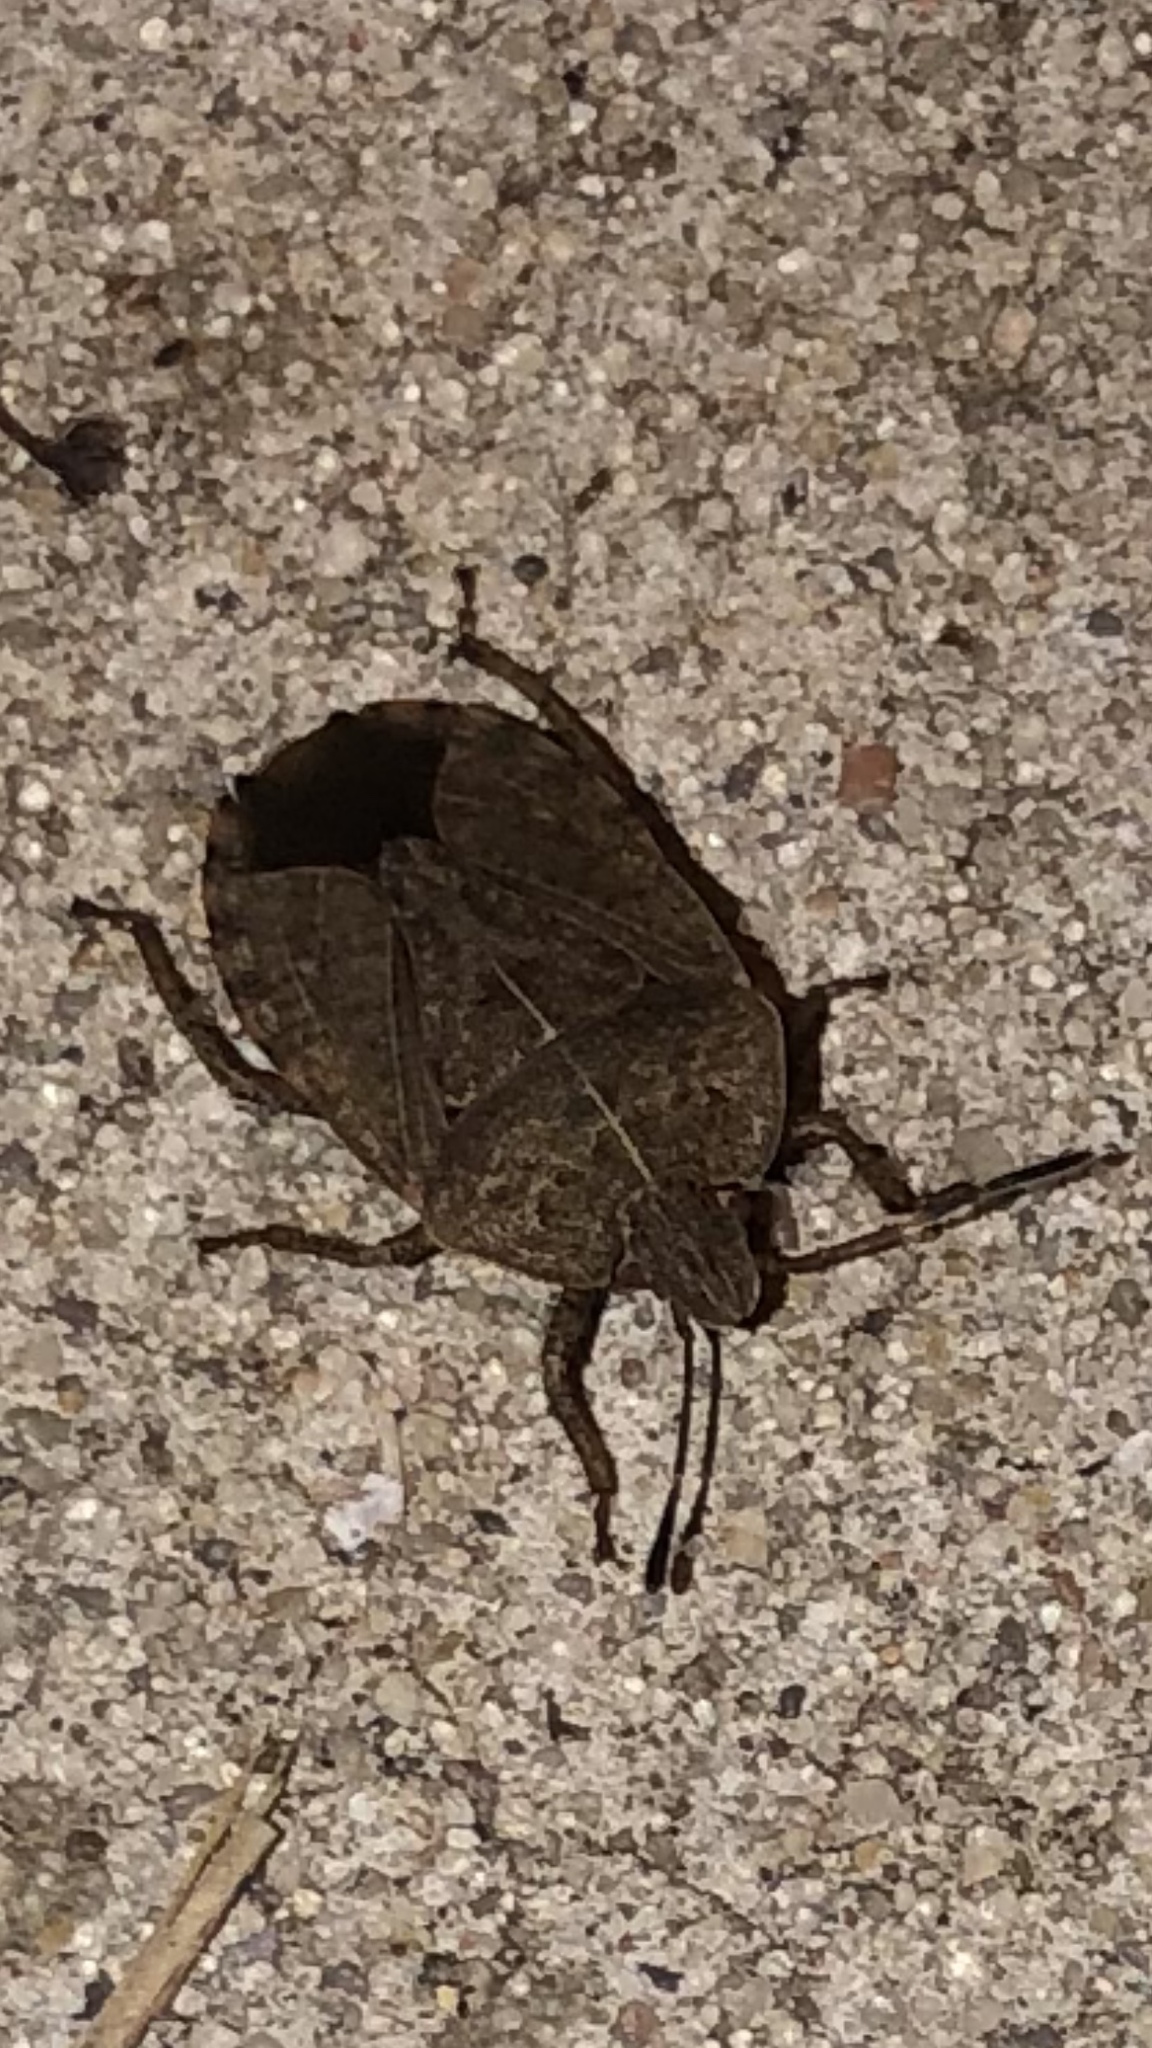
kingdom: Animalia
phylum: Arthropoda
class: Insecta
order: Hemiptera
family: Pentatomidae
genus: Menecles
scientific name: Menecles insertus
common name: Elf shoe stink bug
